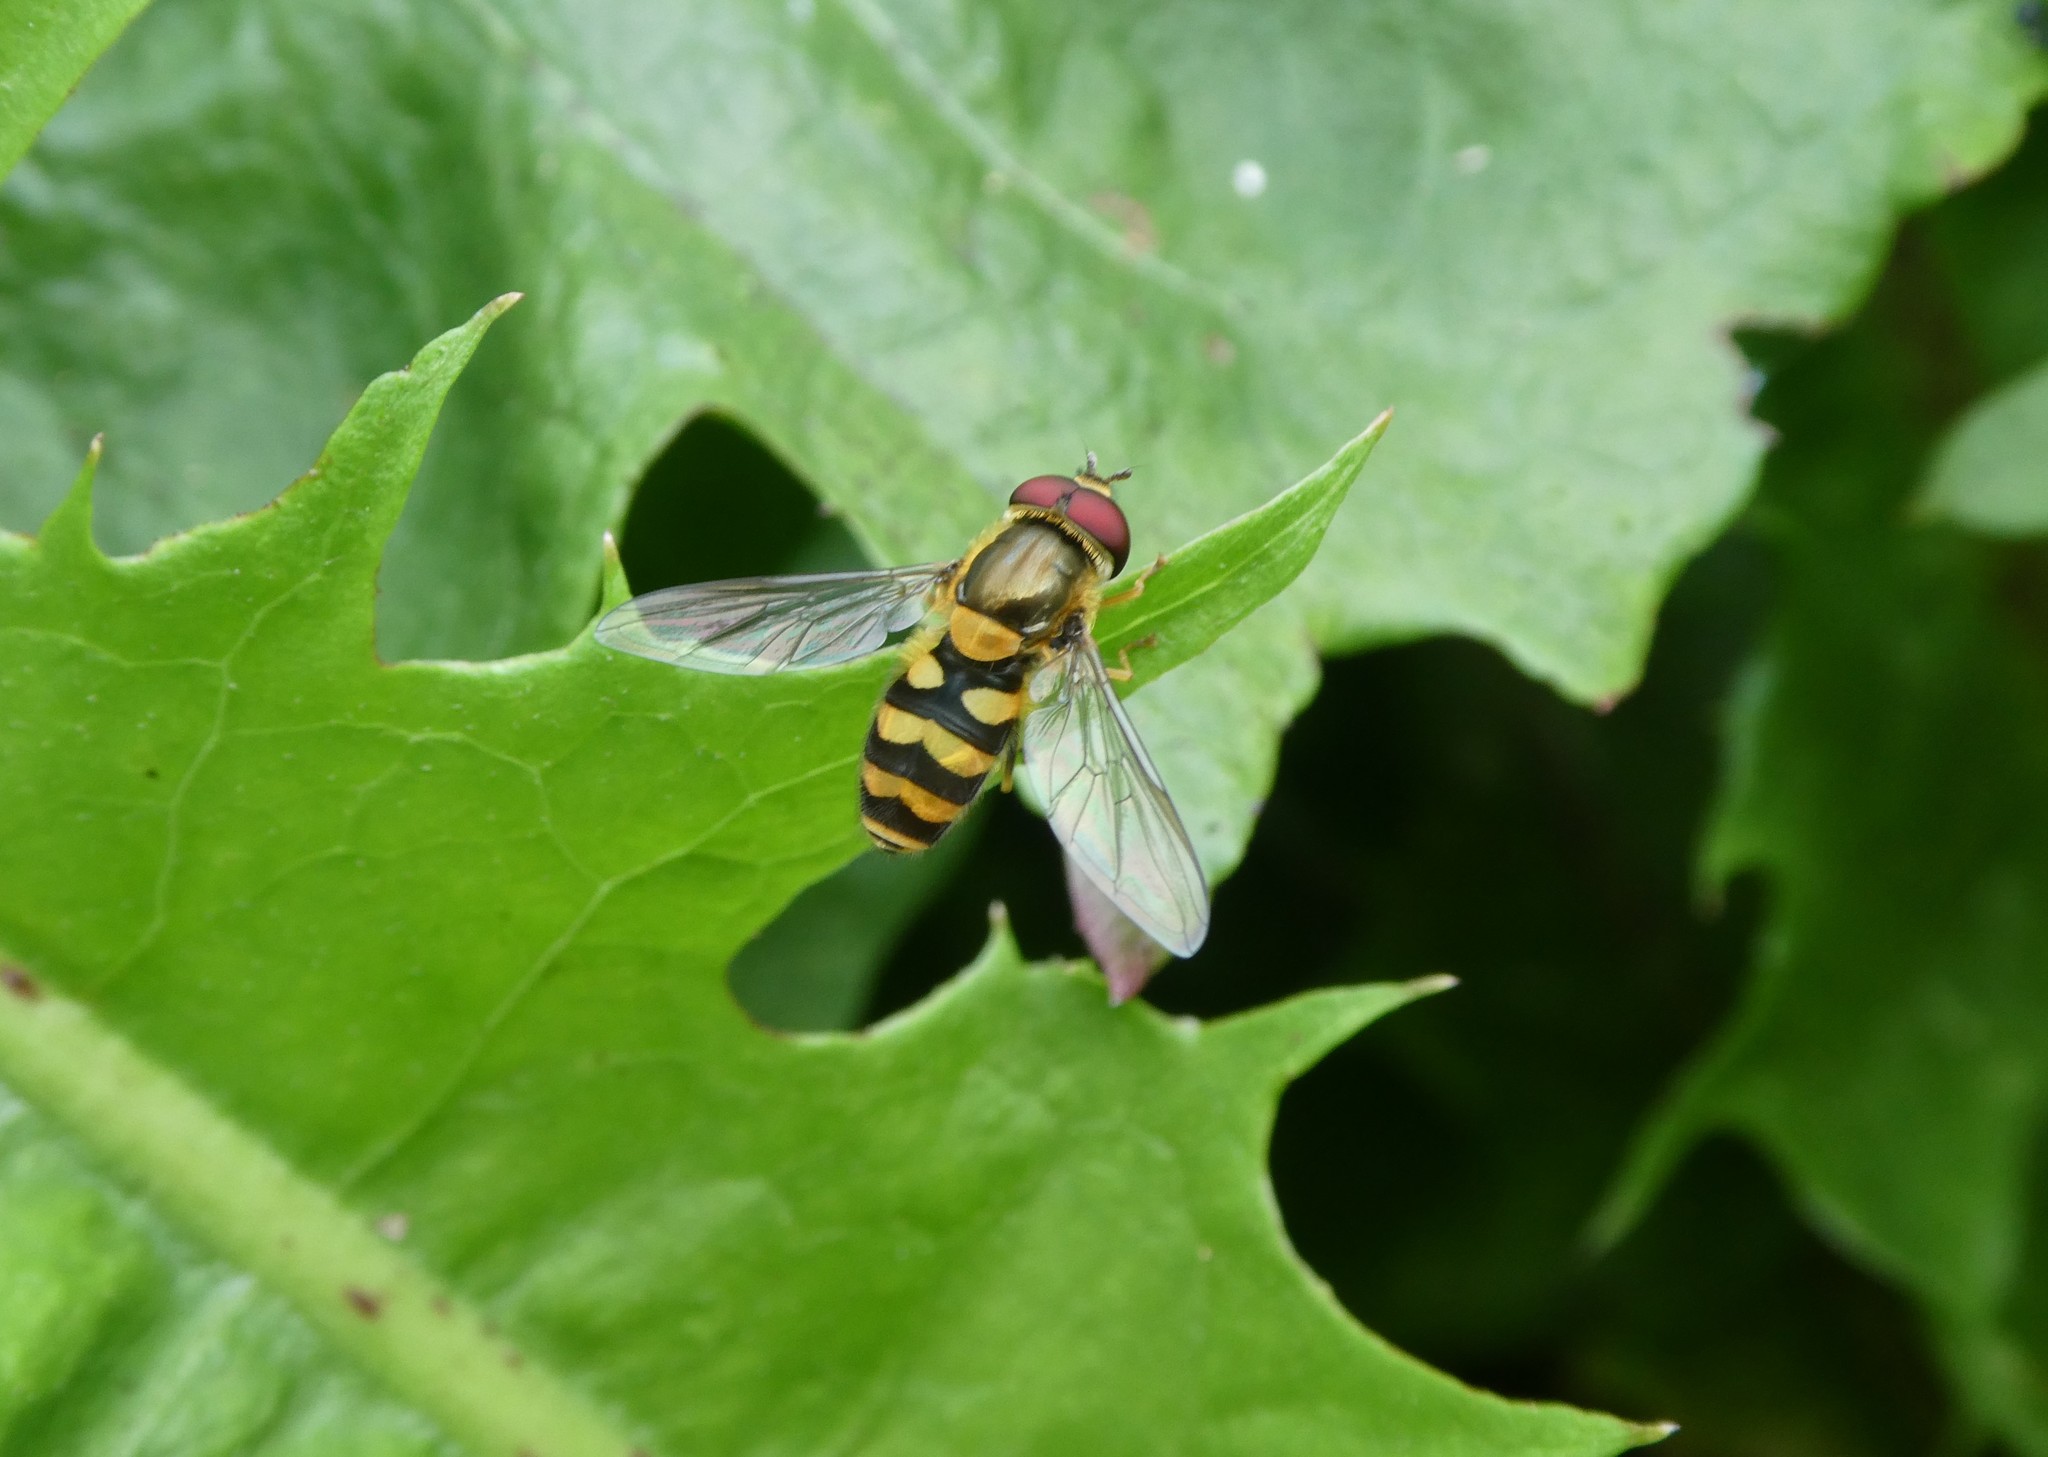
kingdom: Animalia
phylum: Arthropoda
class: Insecta
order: Diptera
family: Syrphidae
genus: Syrphus
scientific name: Syrphus
